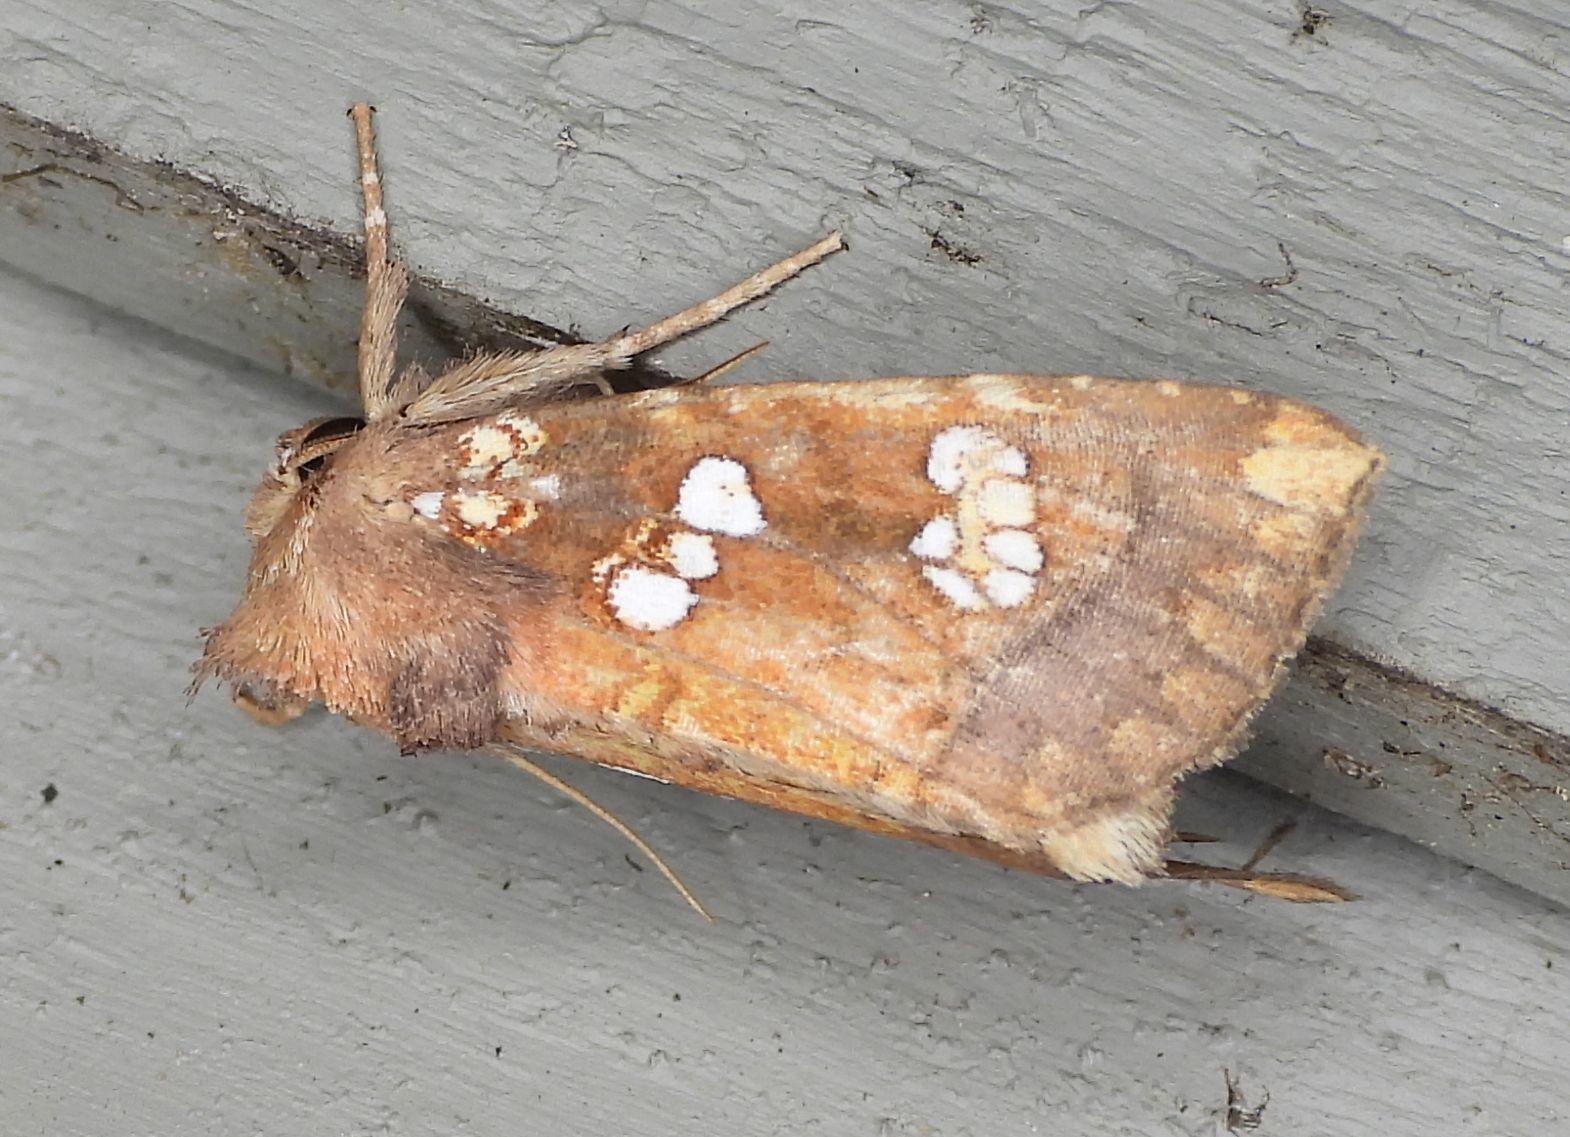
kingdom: Animalia
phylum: Arthropoda
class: Insecta
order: Lepidoptera
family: Noctuidae
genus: Papaipema
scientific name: Papaipema insulidens
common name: Ragwort stem borer moth
